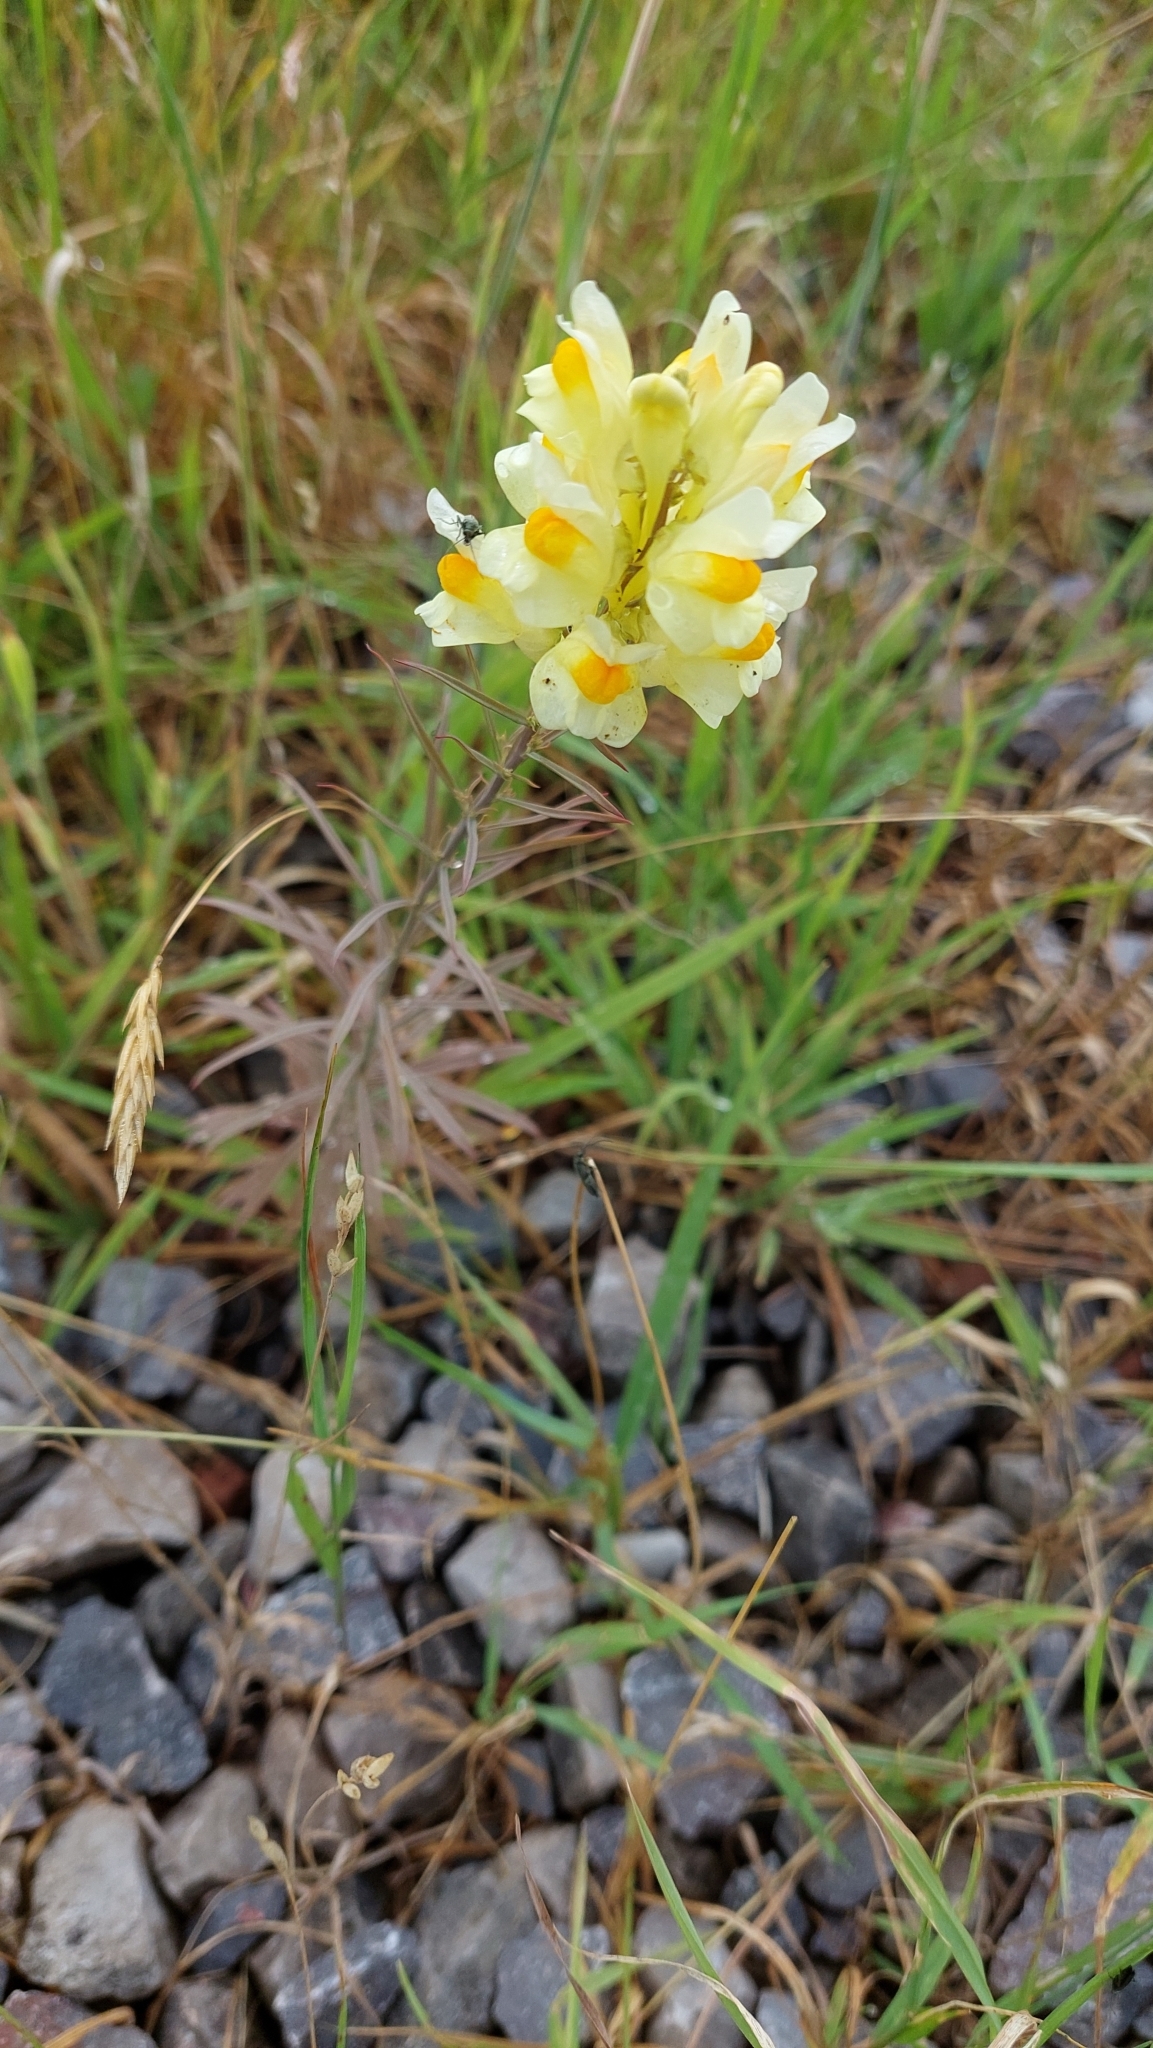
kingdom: Plantae
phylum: Tracheophyta
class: Magnoliopsida
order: Lamiales
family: Plantaginaceae
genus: Linaria
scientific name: Linaria vulgaris
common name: Butter and eggs
